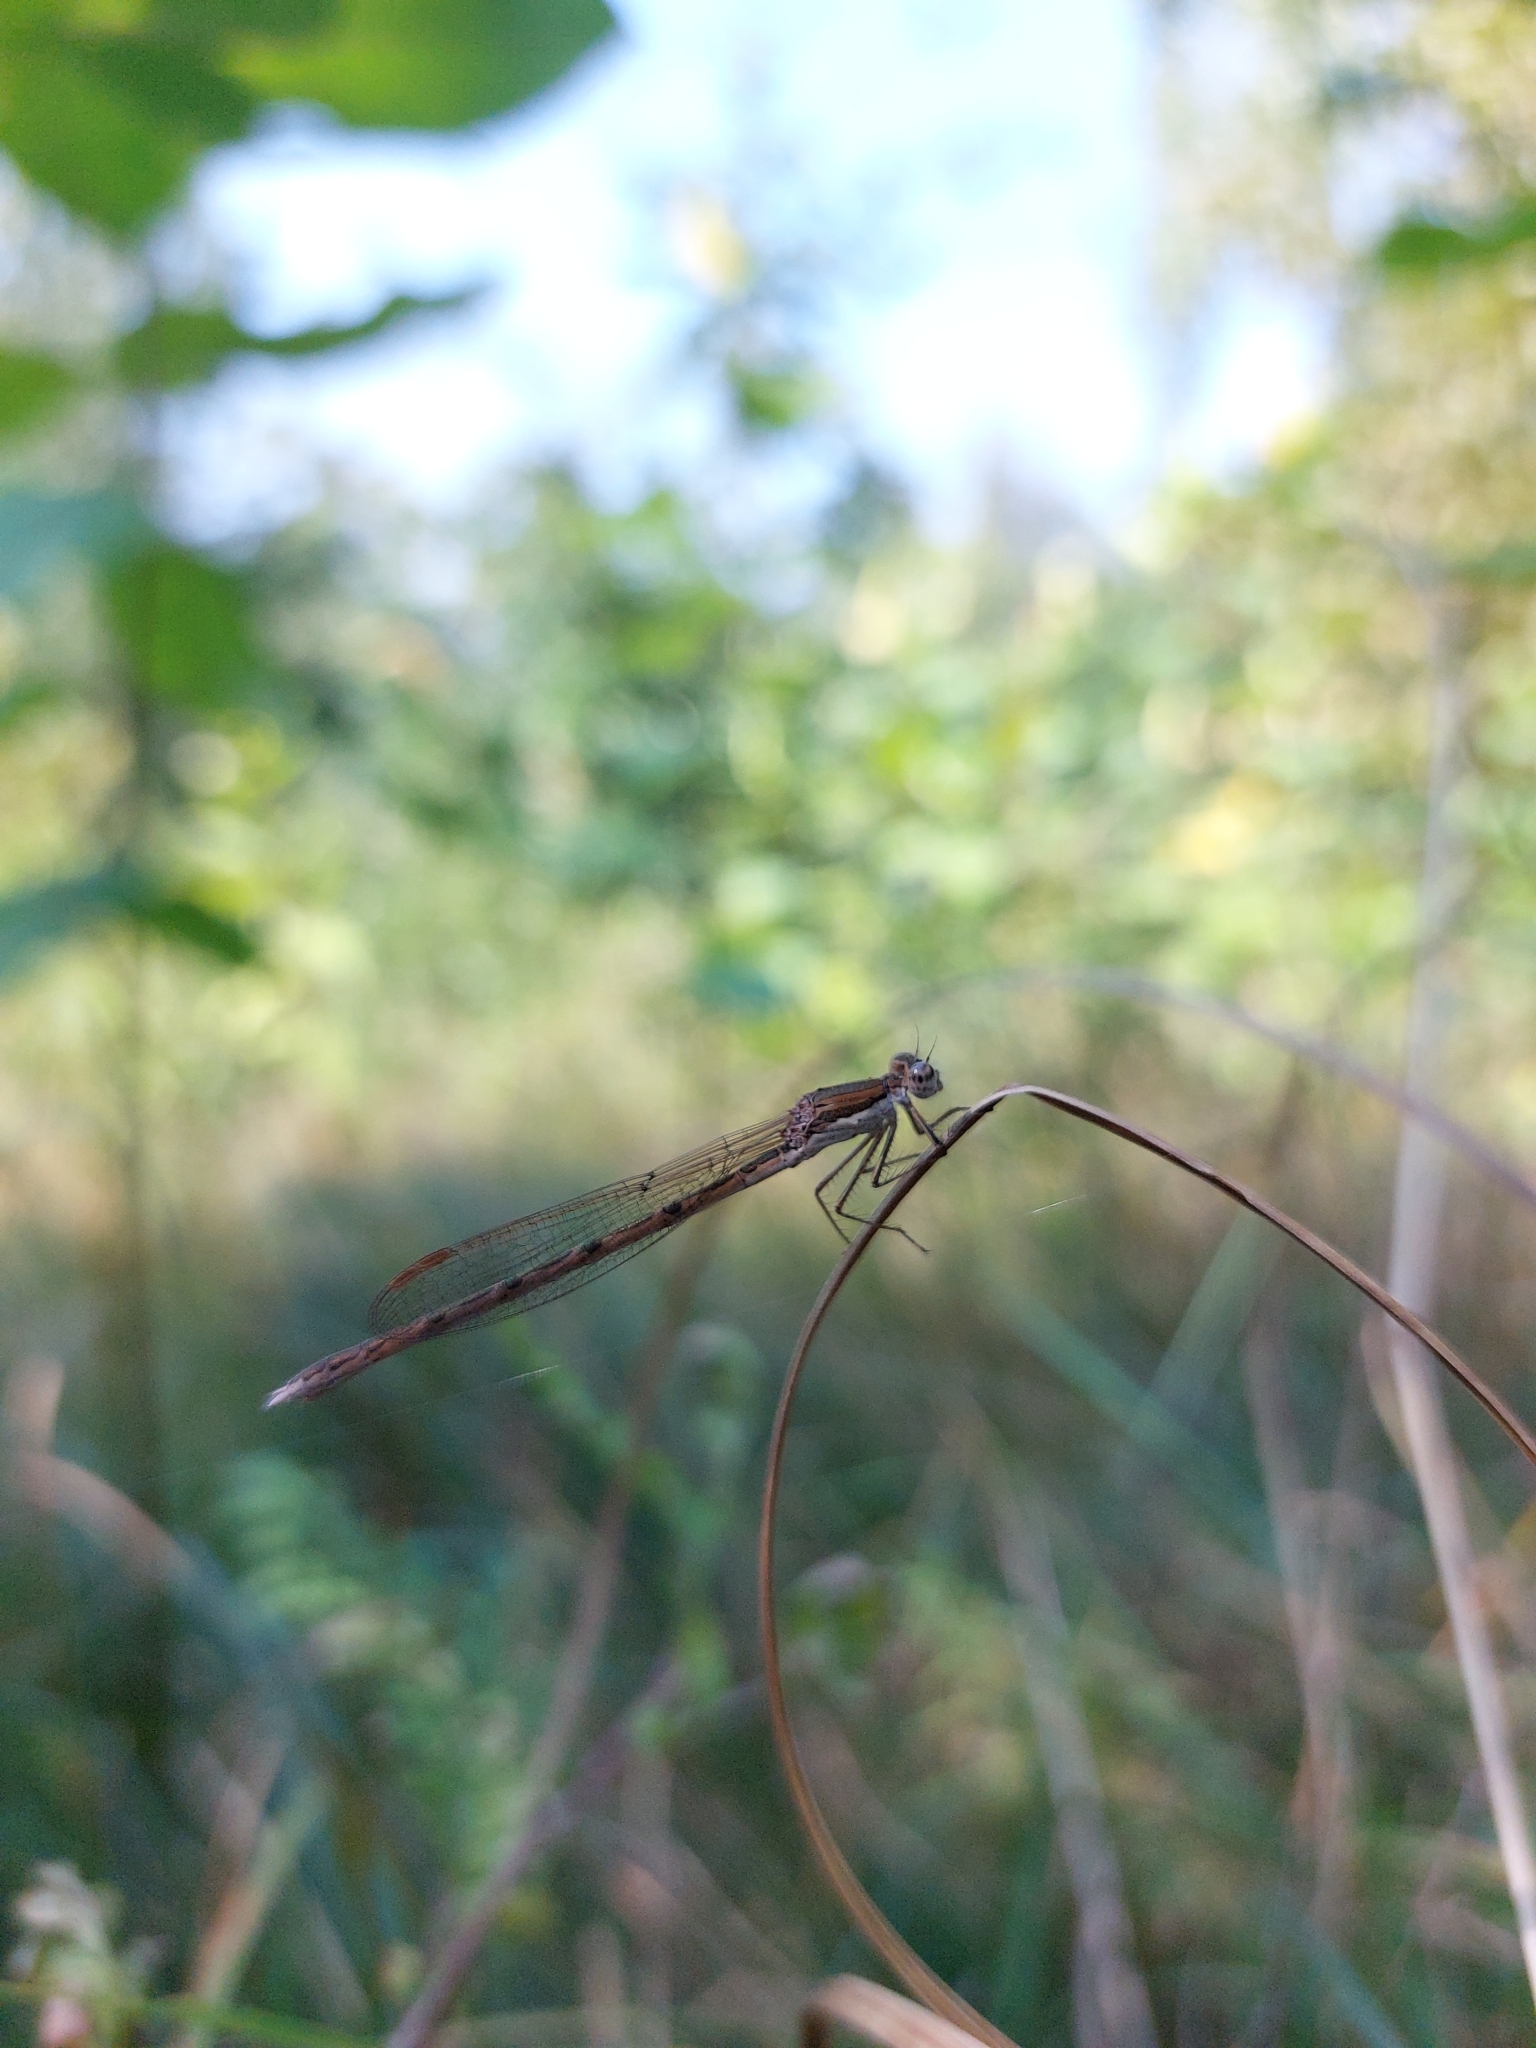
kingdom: Animalia
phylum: Arthropoda
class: Insecta
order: Odonata
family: Lestidae
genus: Sympecma
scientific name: Sympecma fusca
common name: Common winter damsel
